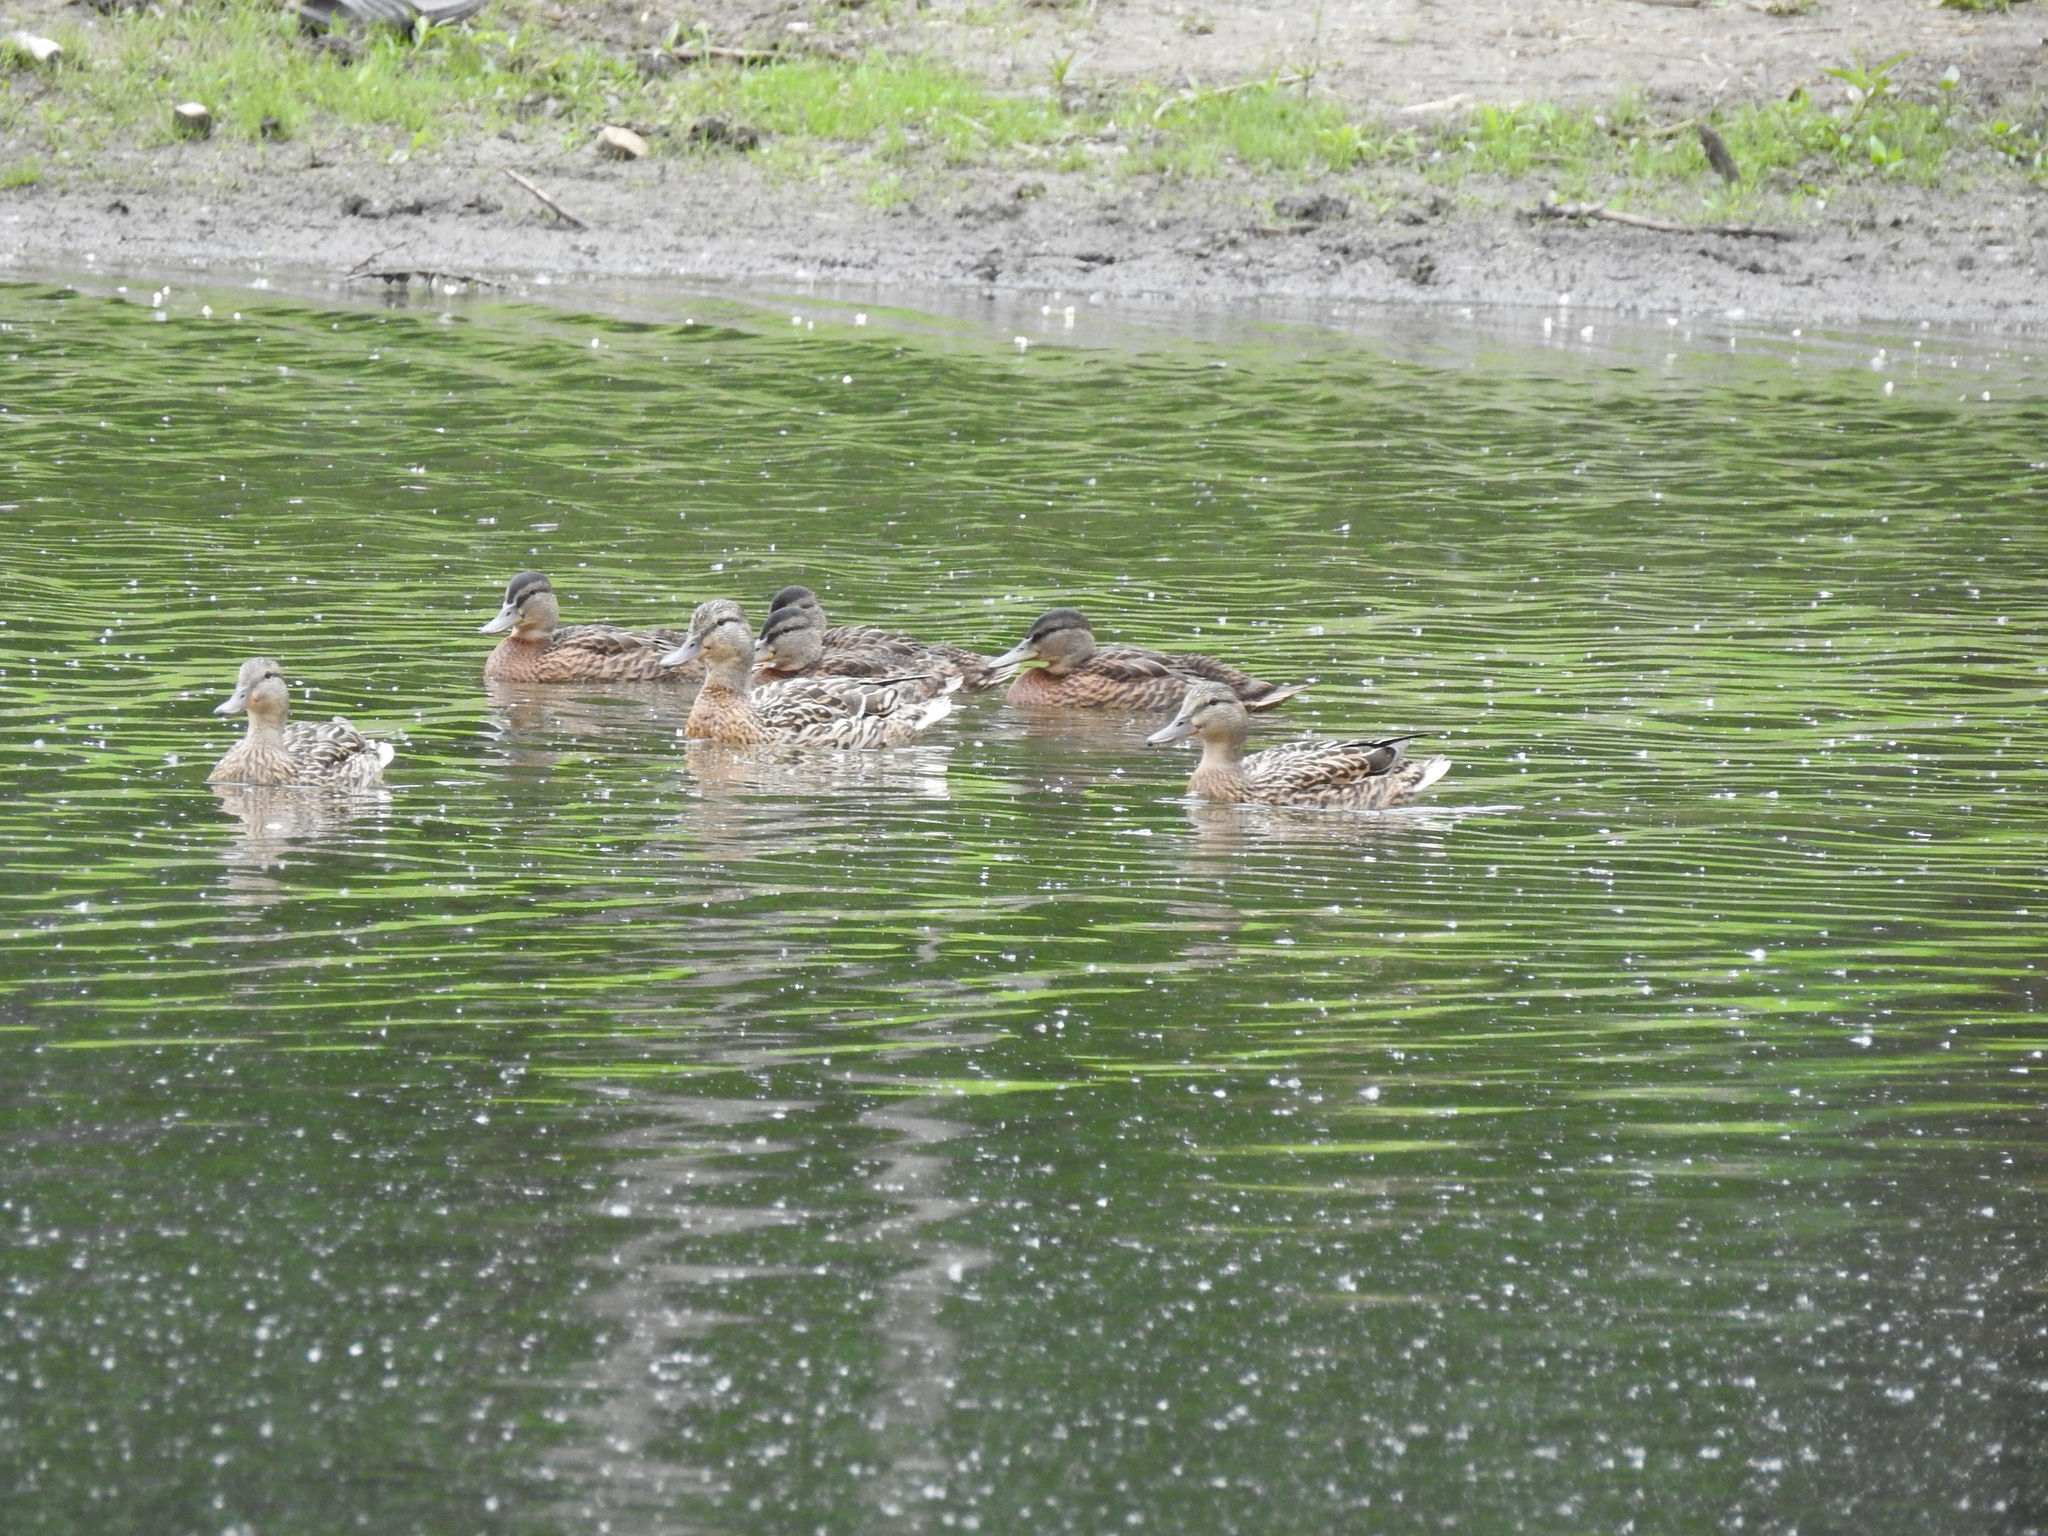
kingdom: Animalia
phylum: Chordata
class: Aves
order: Anseriformes
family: Anatidae
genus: Anas
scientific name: Anas platyrhynchos
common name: Mallard
